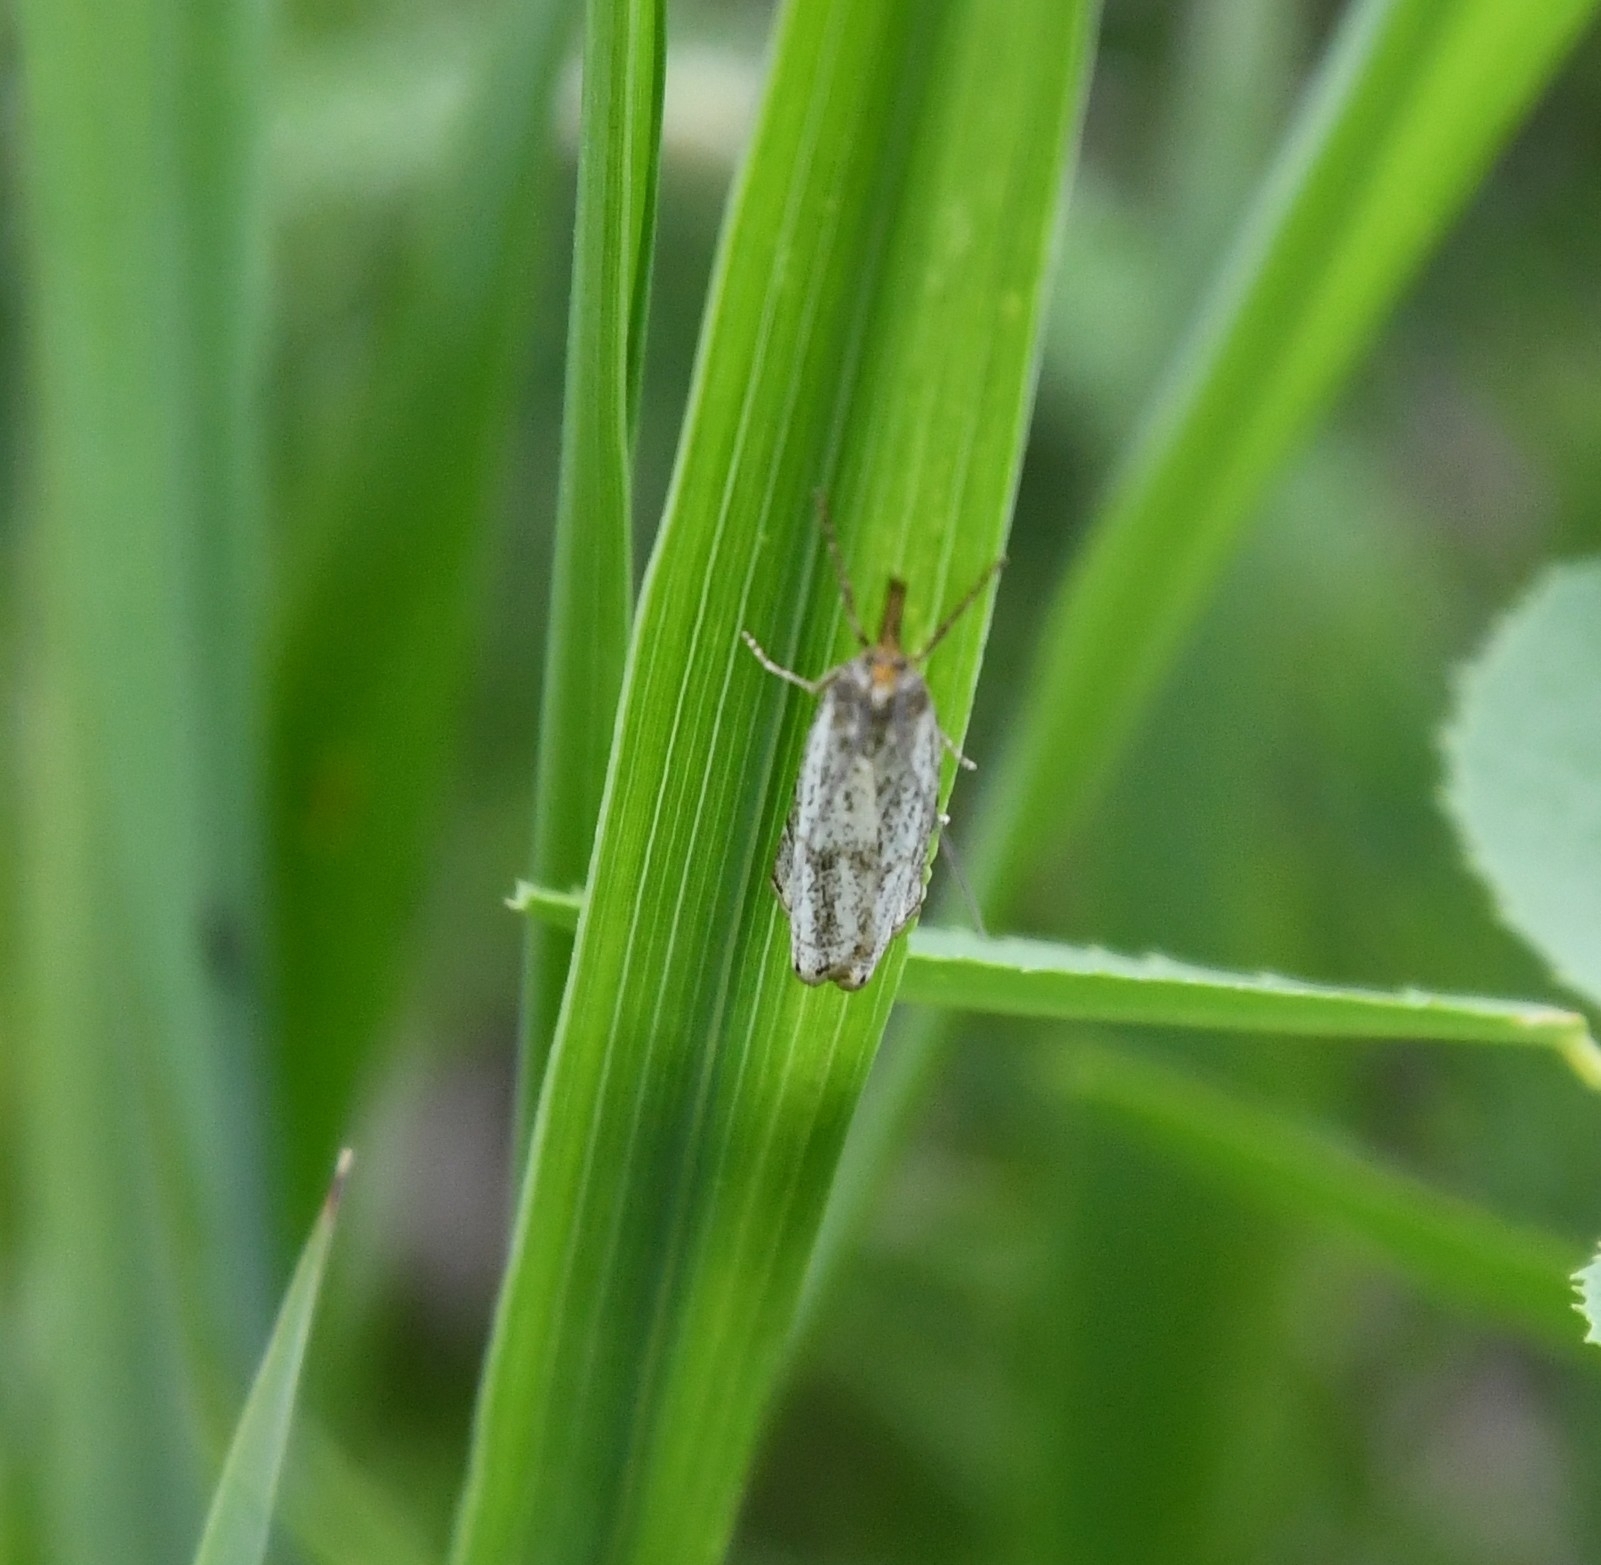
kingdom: Animalia
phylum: Arthropoda
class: Insecta
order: Lepidoptera
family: Crambidae
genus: Thisanotia
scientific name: Thisanotia chrysonuchella
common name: Powdered grass-veneer
